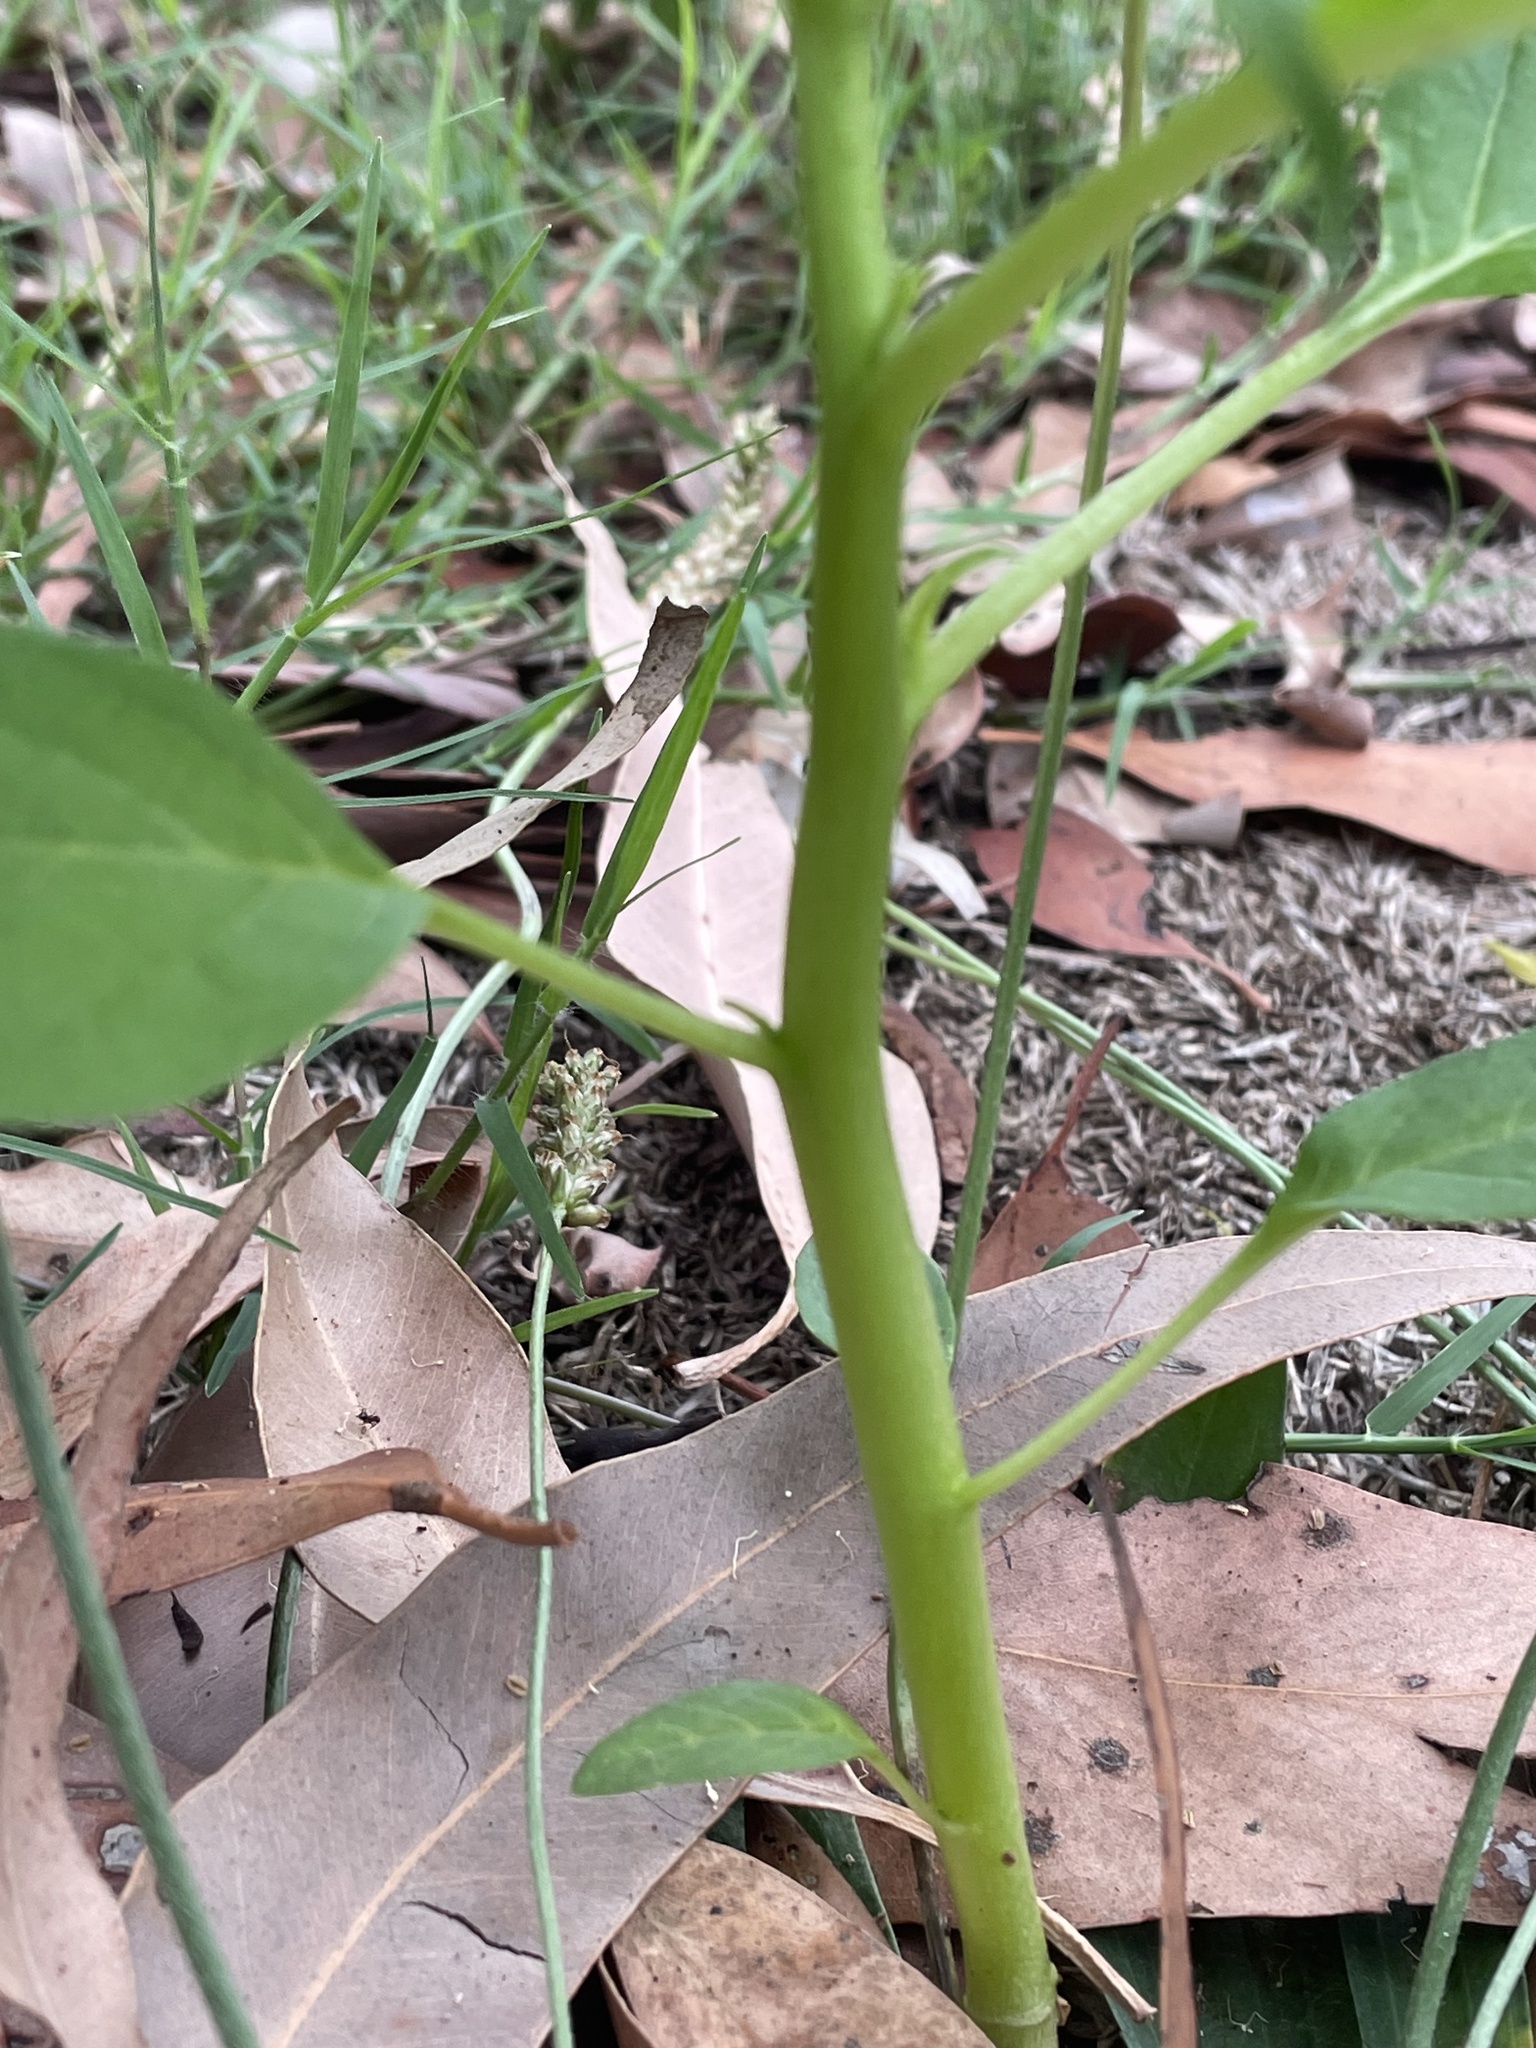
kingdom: Plantae
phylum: Tracheophyta
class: Magnoliopsida
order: Solanales
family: Solanaceae
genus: Datura
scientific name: Datura stramonium
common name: Thorn-apple
